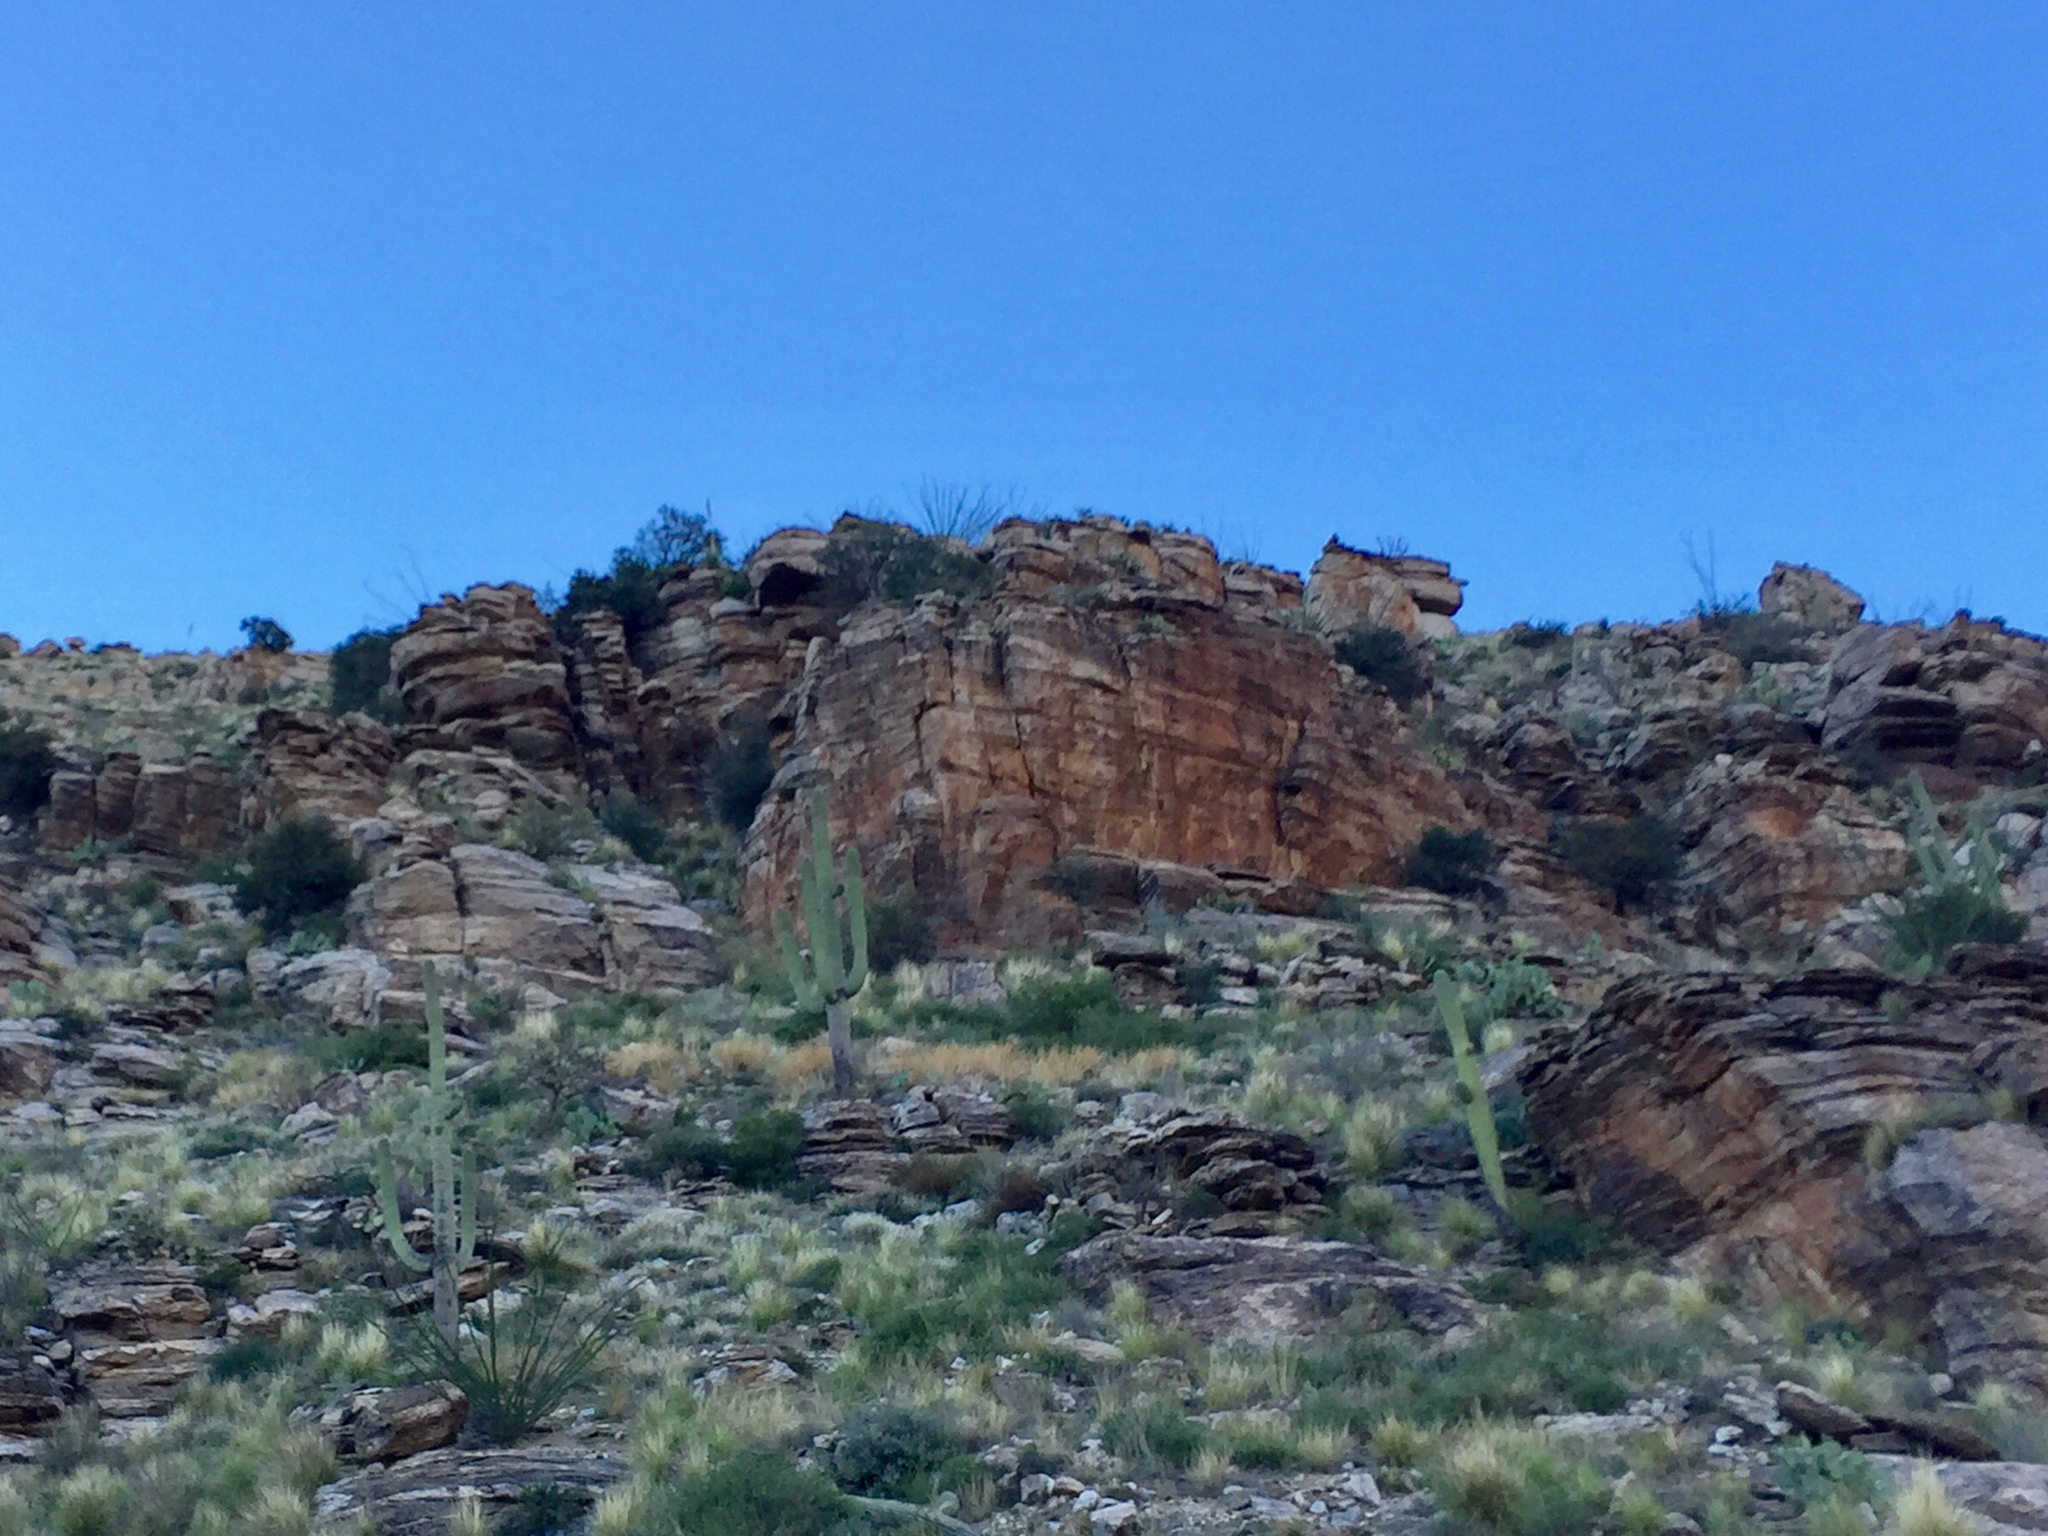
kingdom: Plantae
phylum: Tracheophyta
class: Magnoliopsida
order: Caryophyllales
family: Cactaceae
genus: Carnegiea
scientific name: Carnegiea gigantea
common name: Saguaro
